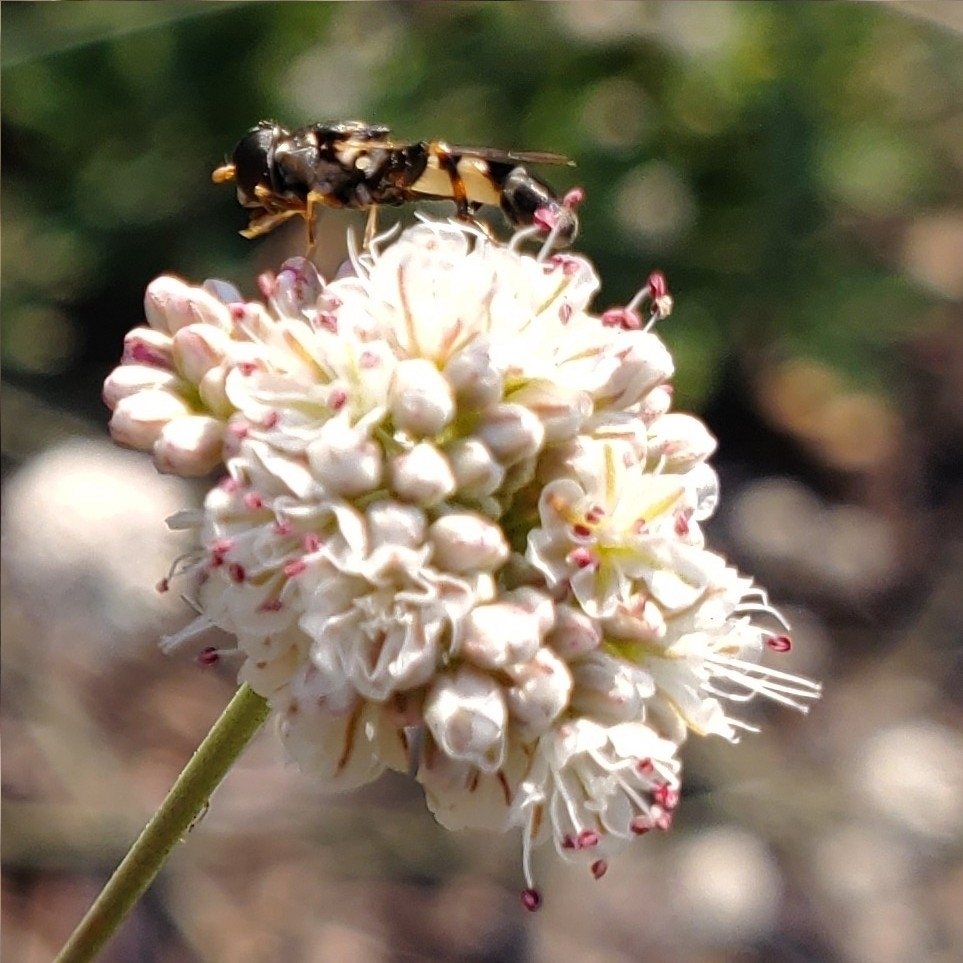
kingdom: Animalia
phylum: Arthropoda
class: Insecta
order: Diptera
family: Syrphidae
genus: Syritta
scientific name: Syritta pipiens
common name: Hover fly
